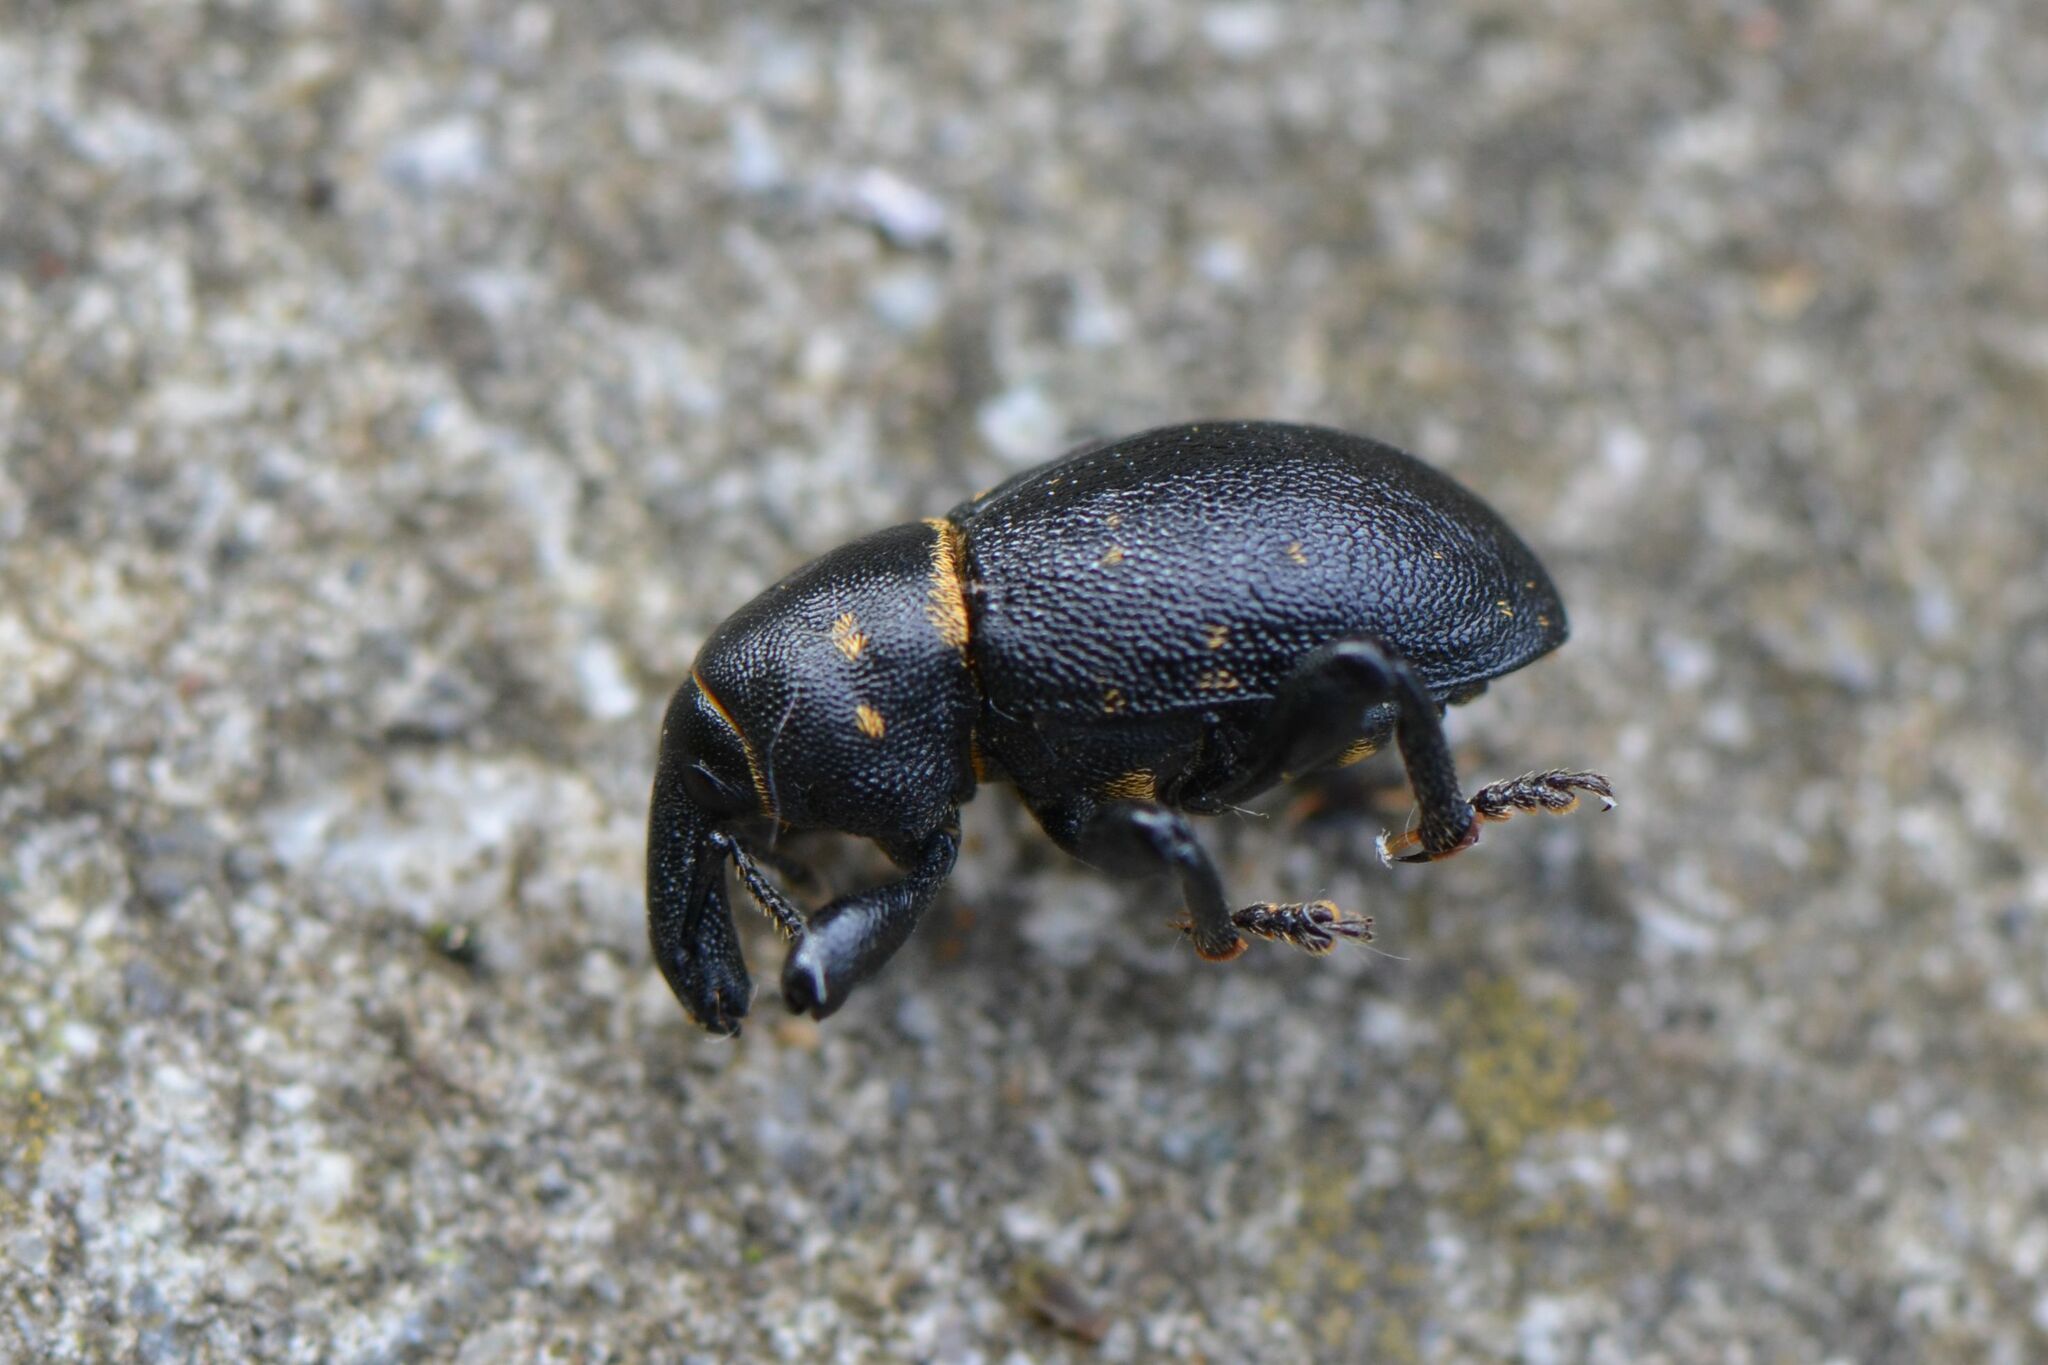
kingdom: Animalia
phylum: Arthropoda
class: Insecta
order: Coleoptera
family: Curculionidae
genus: Liparus
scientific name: Liparus coronatus
